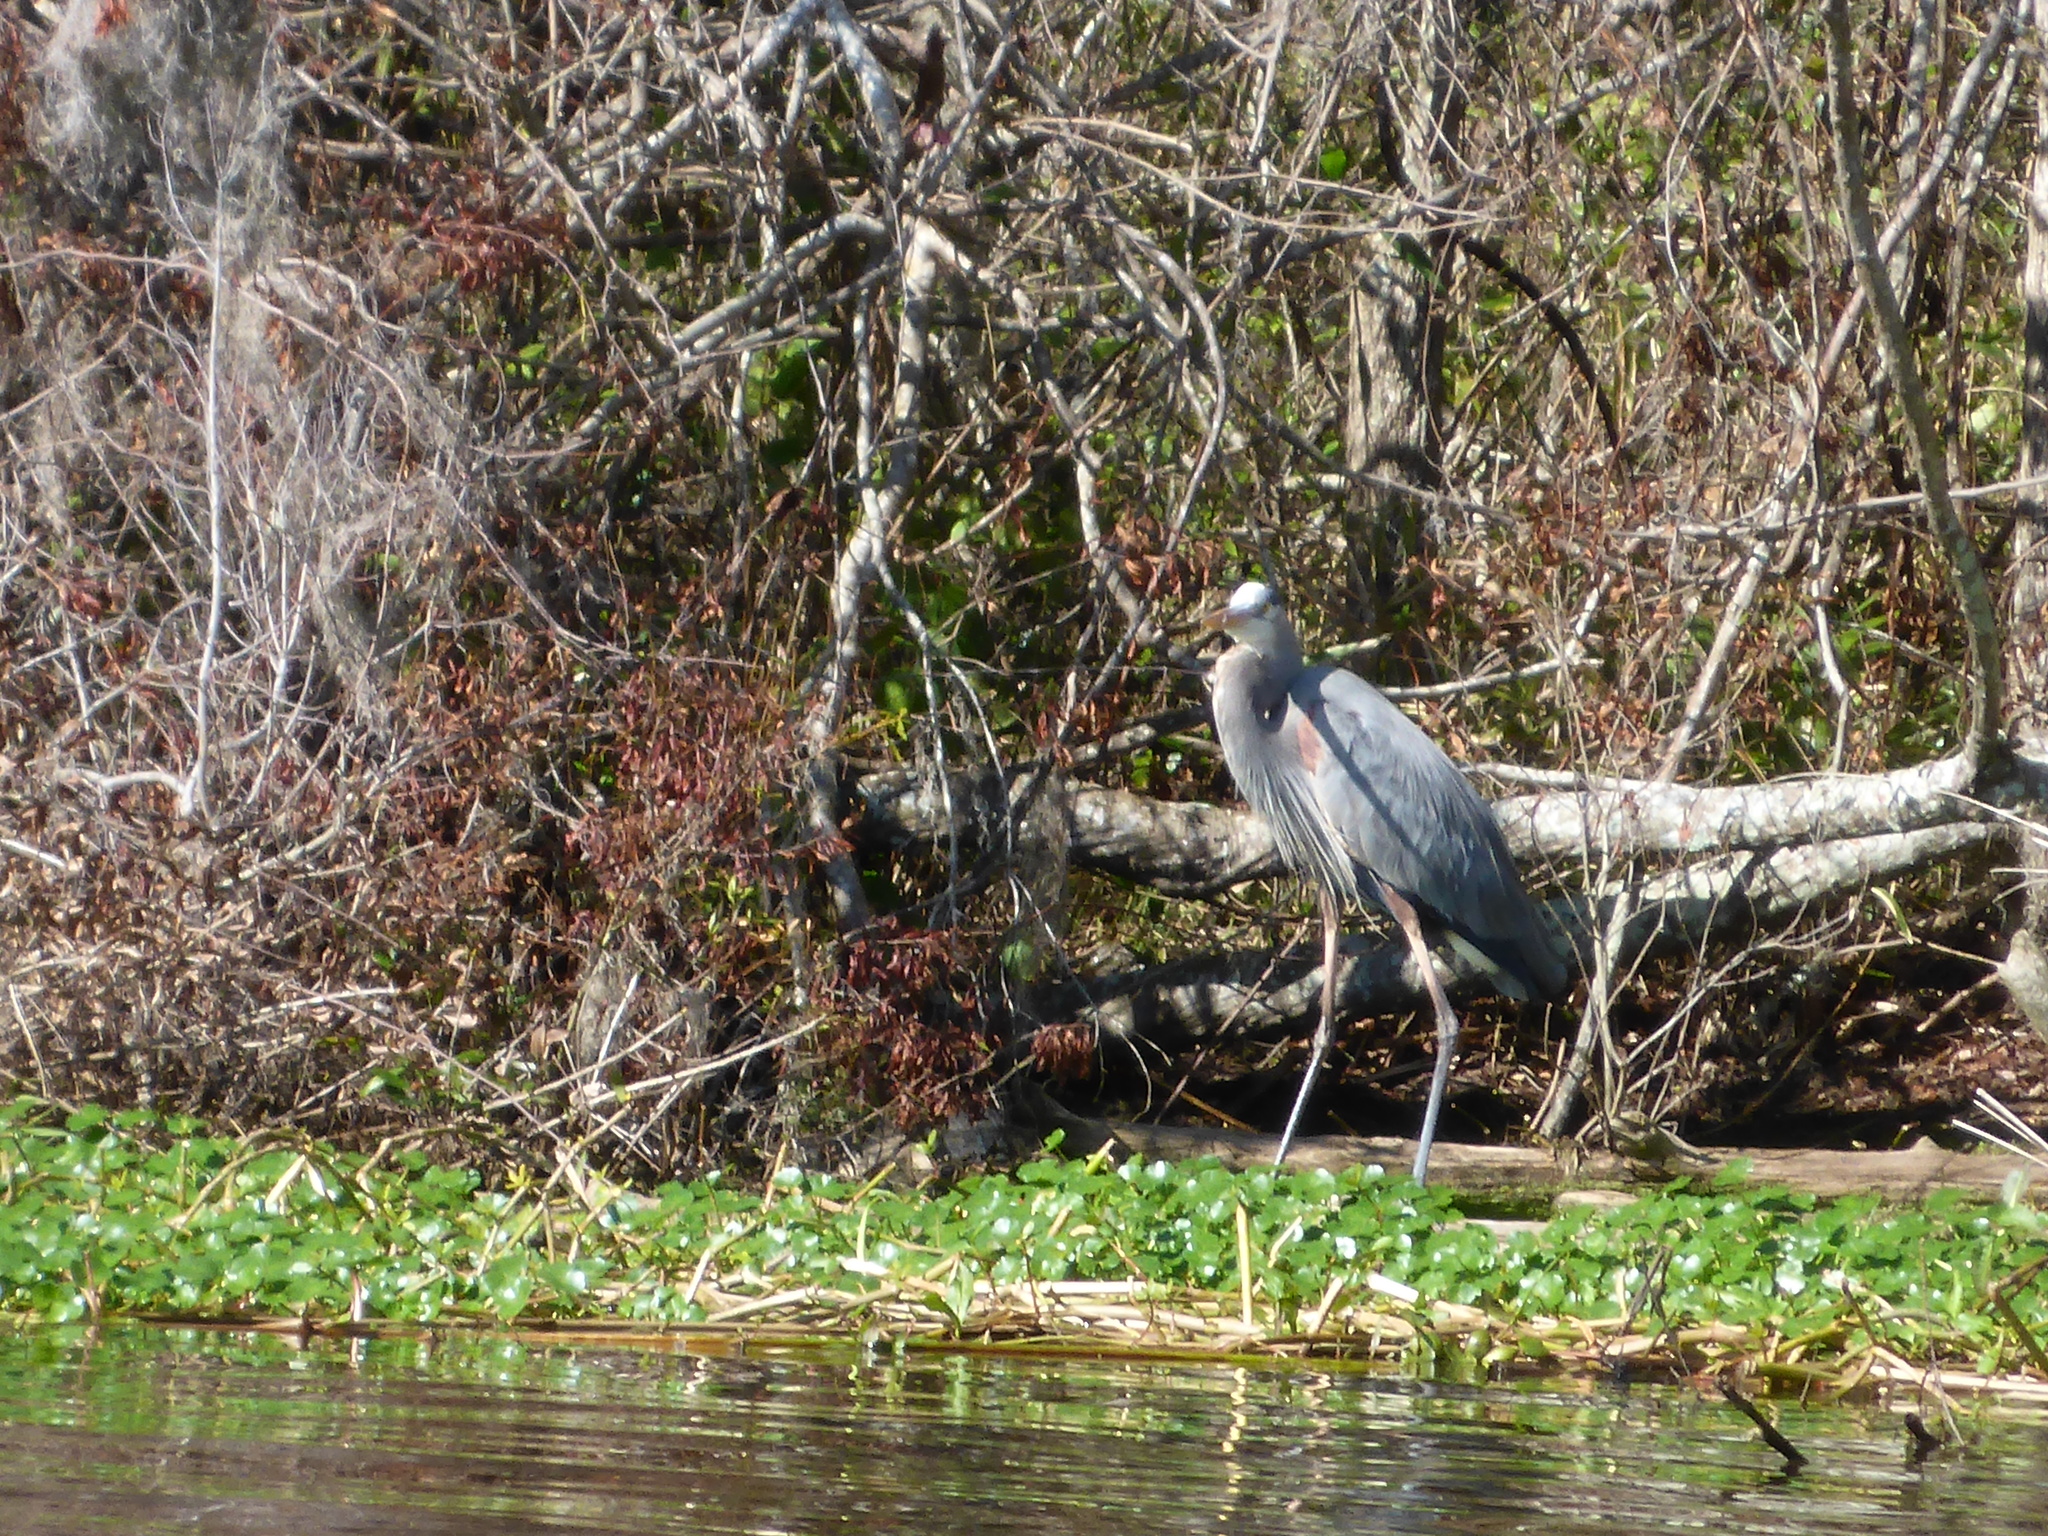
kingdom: Animalia
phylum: Chordata
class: Aves
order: Pelecaniformes
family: Ardeidae
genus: Ardea
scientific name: Ardea herodias
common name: Great blue heron
